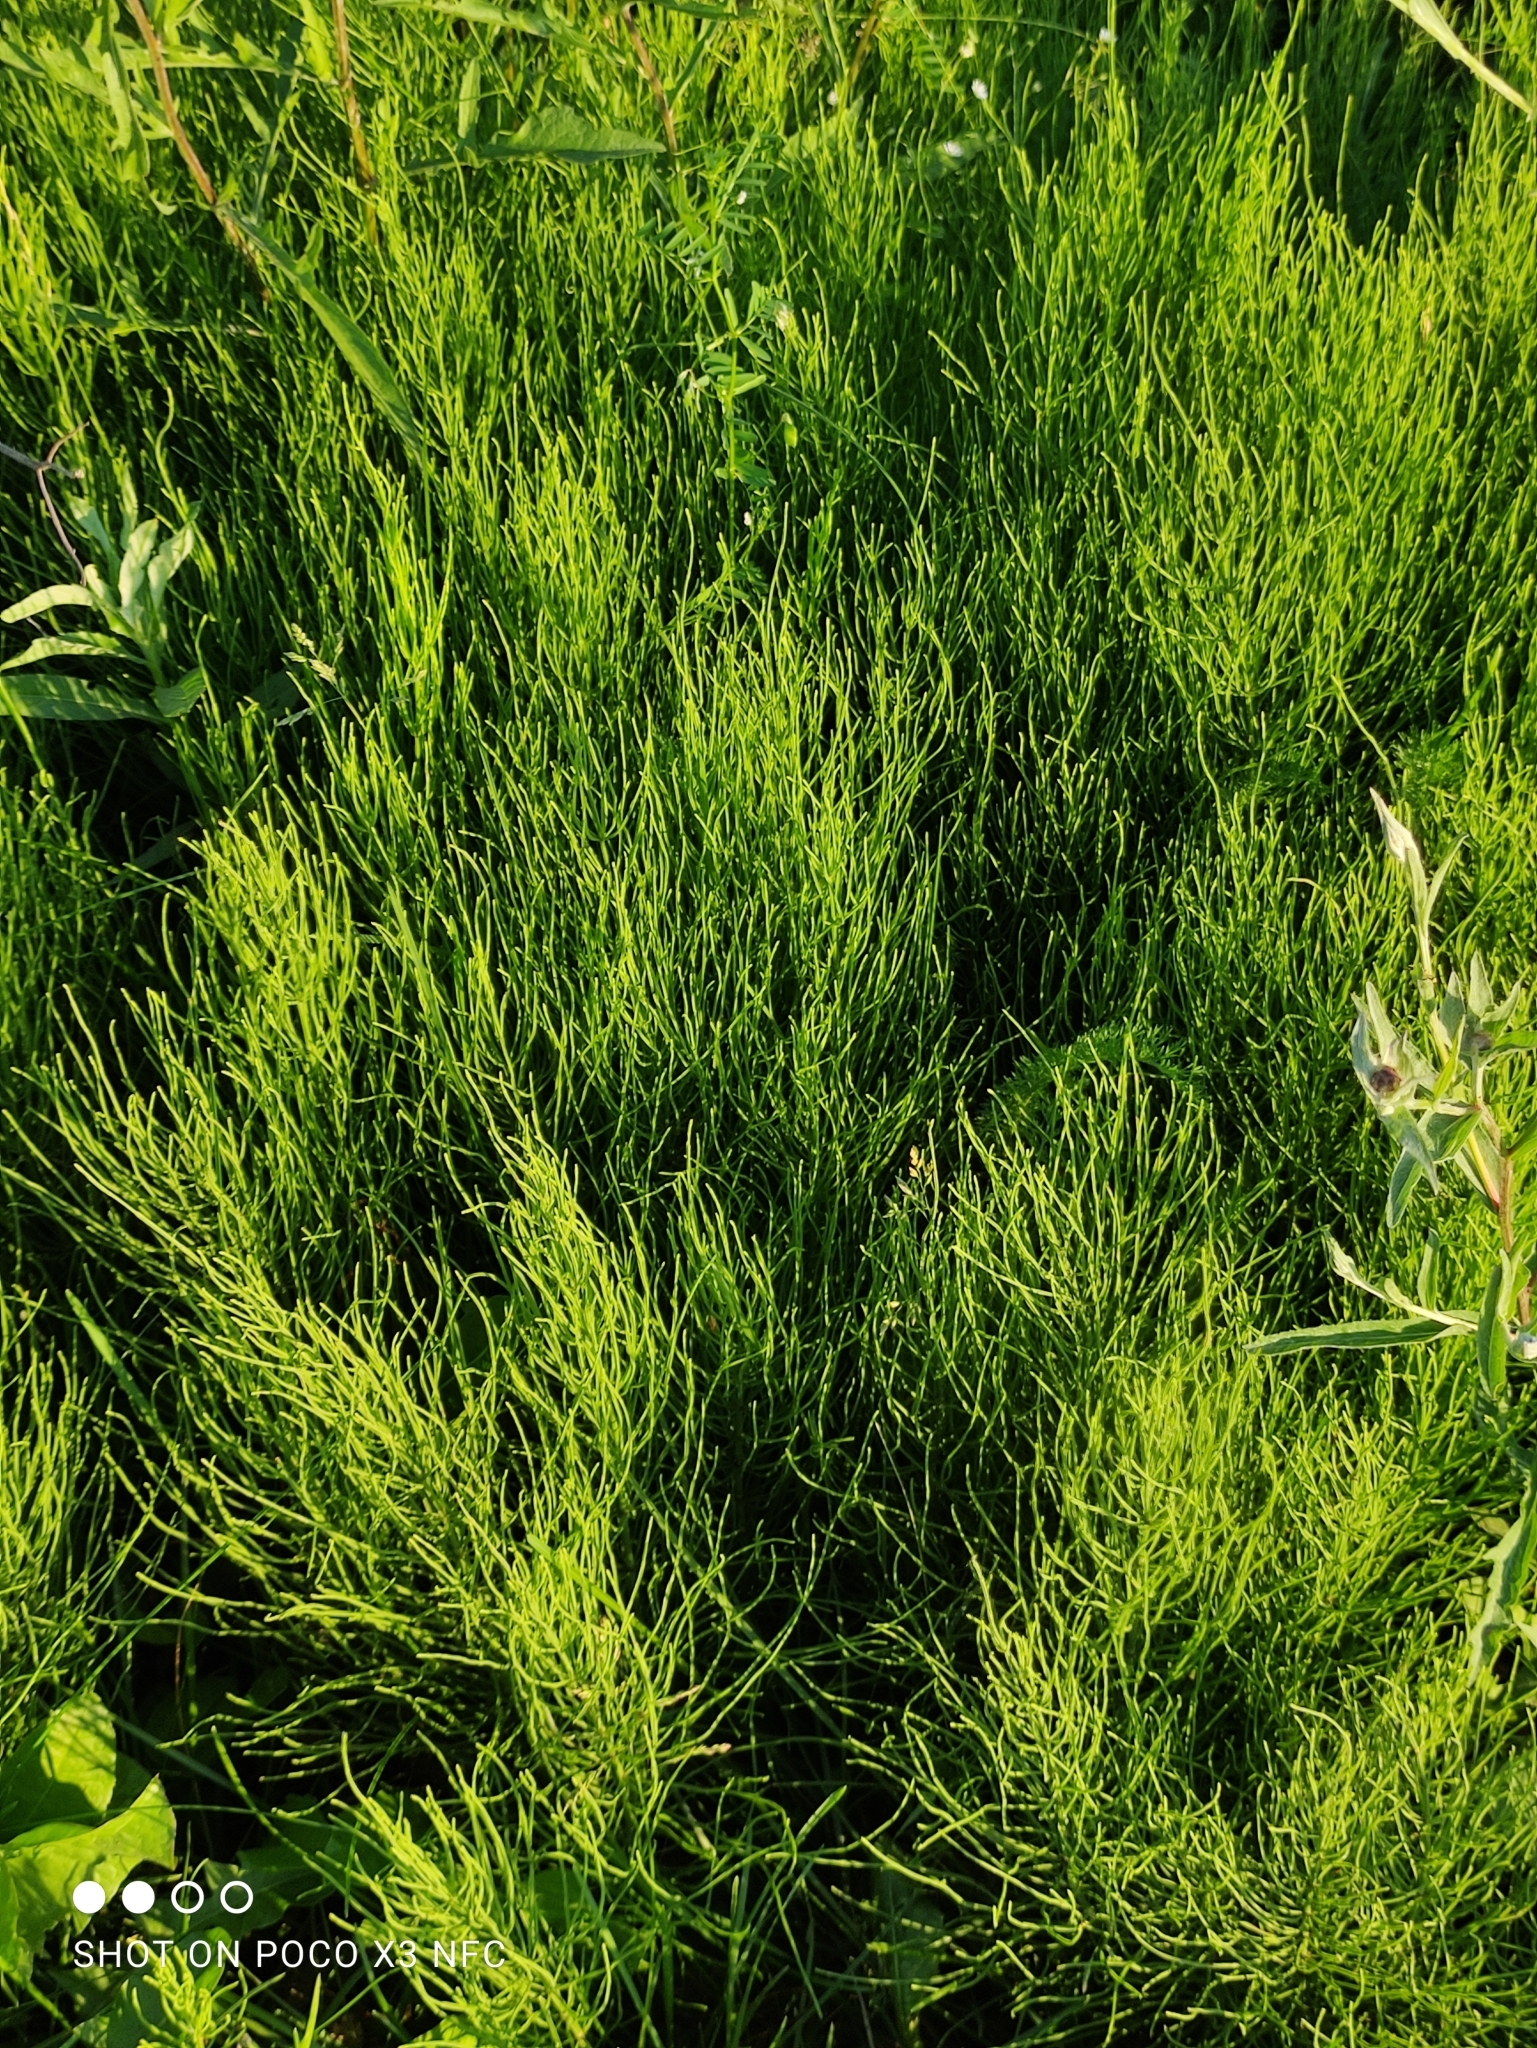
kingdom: Plantae
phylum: Tracheophyta
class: Polypodiopsida
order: Equisetales
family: Equisetaceae
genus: Equisetum
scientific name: Equisetum arvense
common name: Field horsetail
